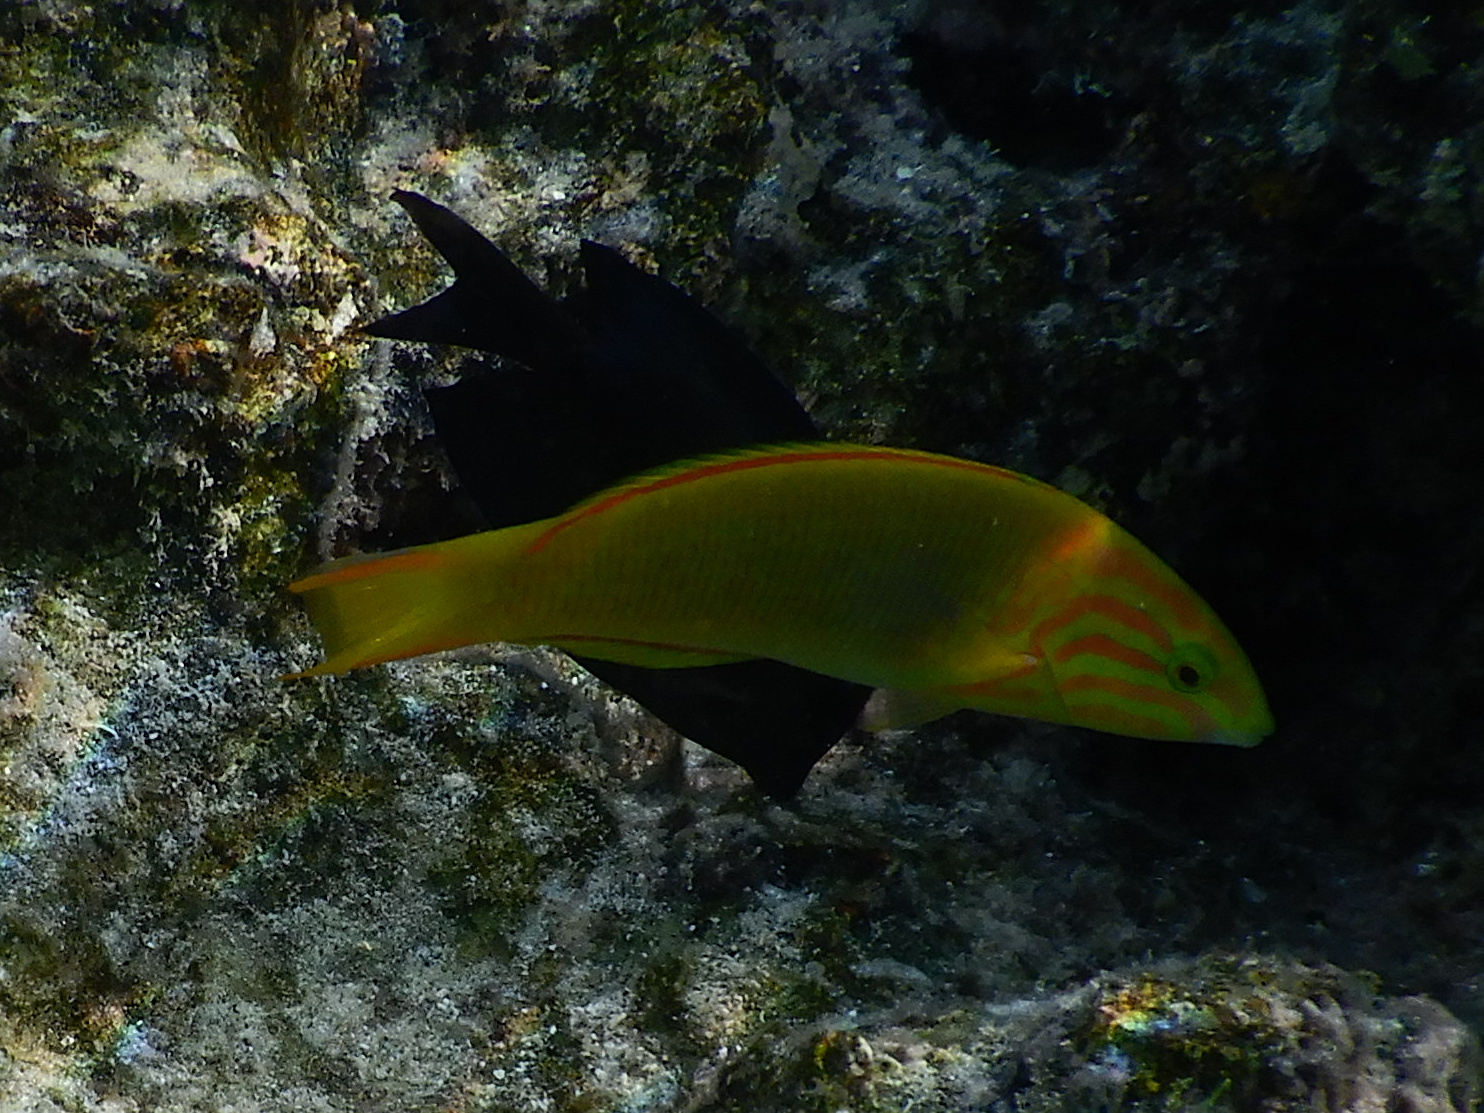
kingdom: Animalia
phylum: Chordata
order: Perciformes
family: Labridae
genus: Thalassoma
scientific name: Thalassoma lutescens
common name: Green moon wrasse
